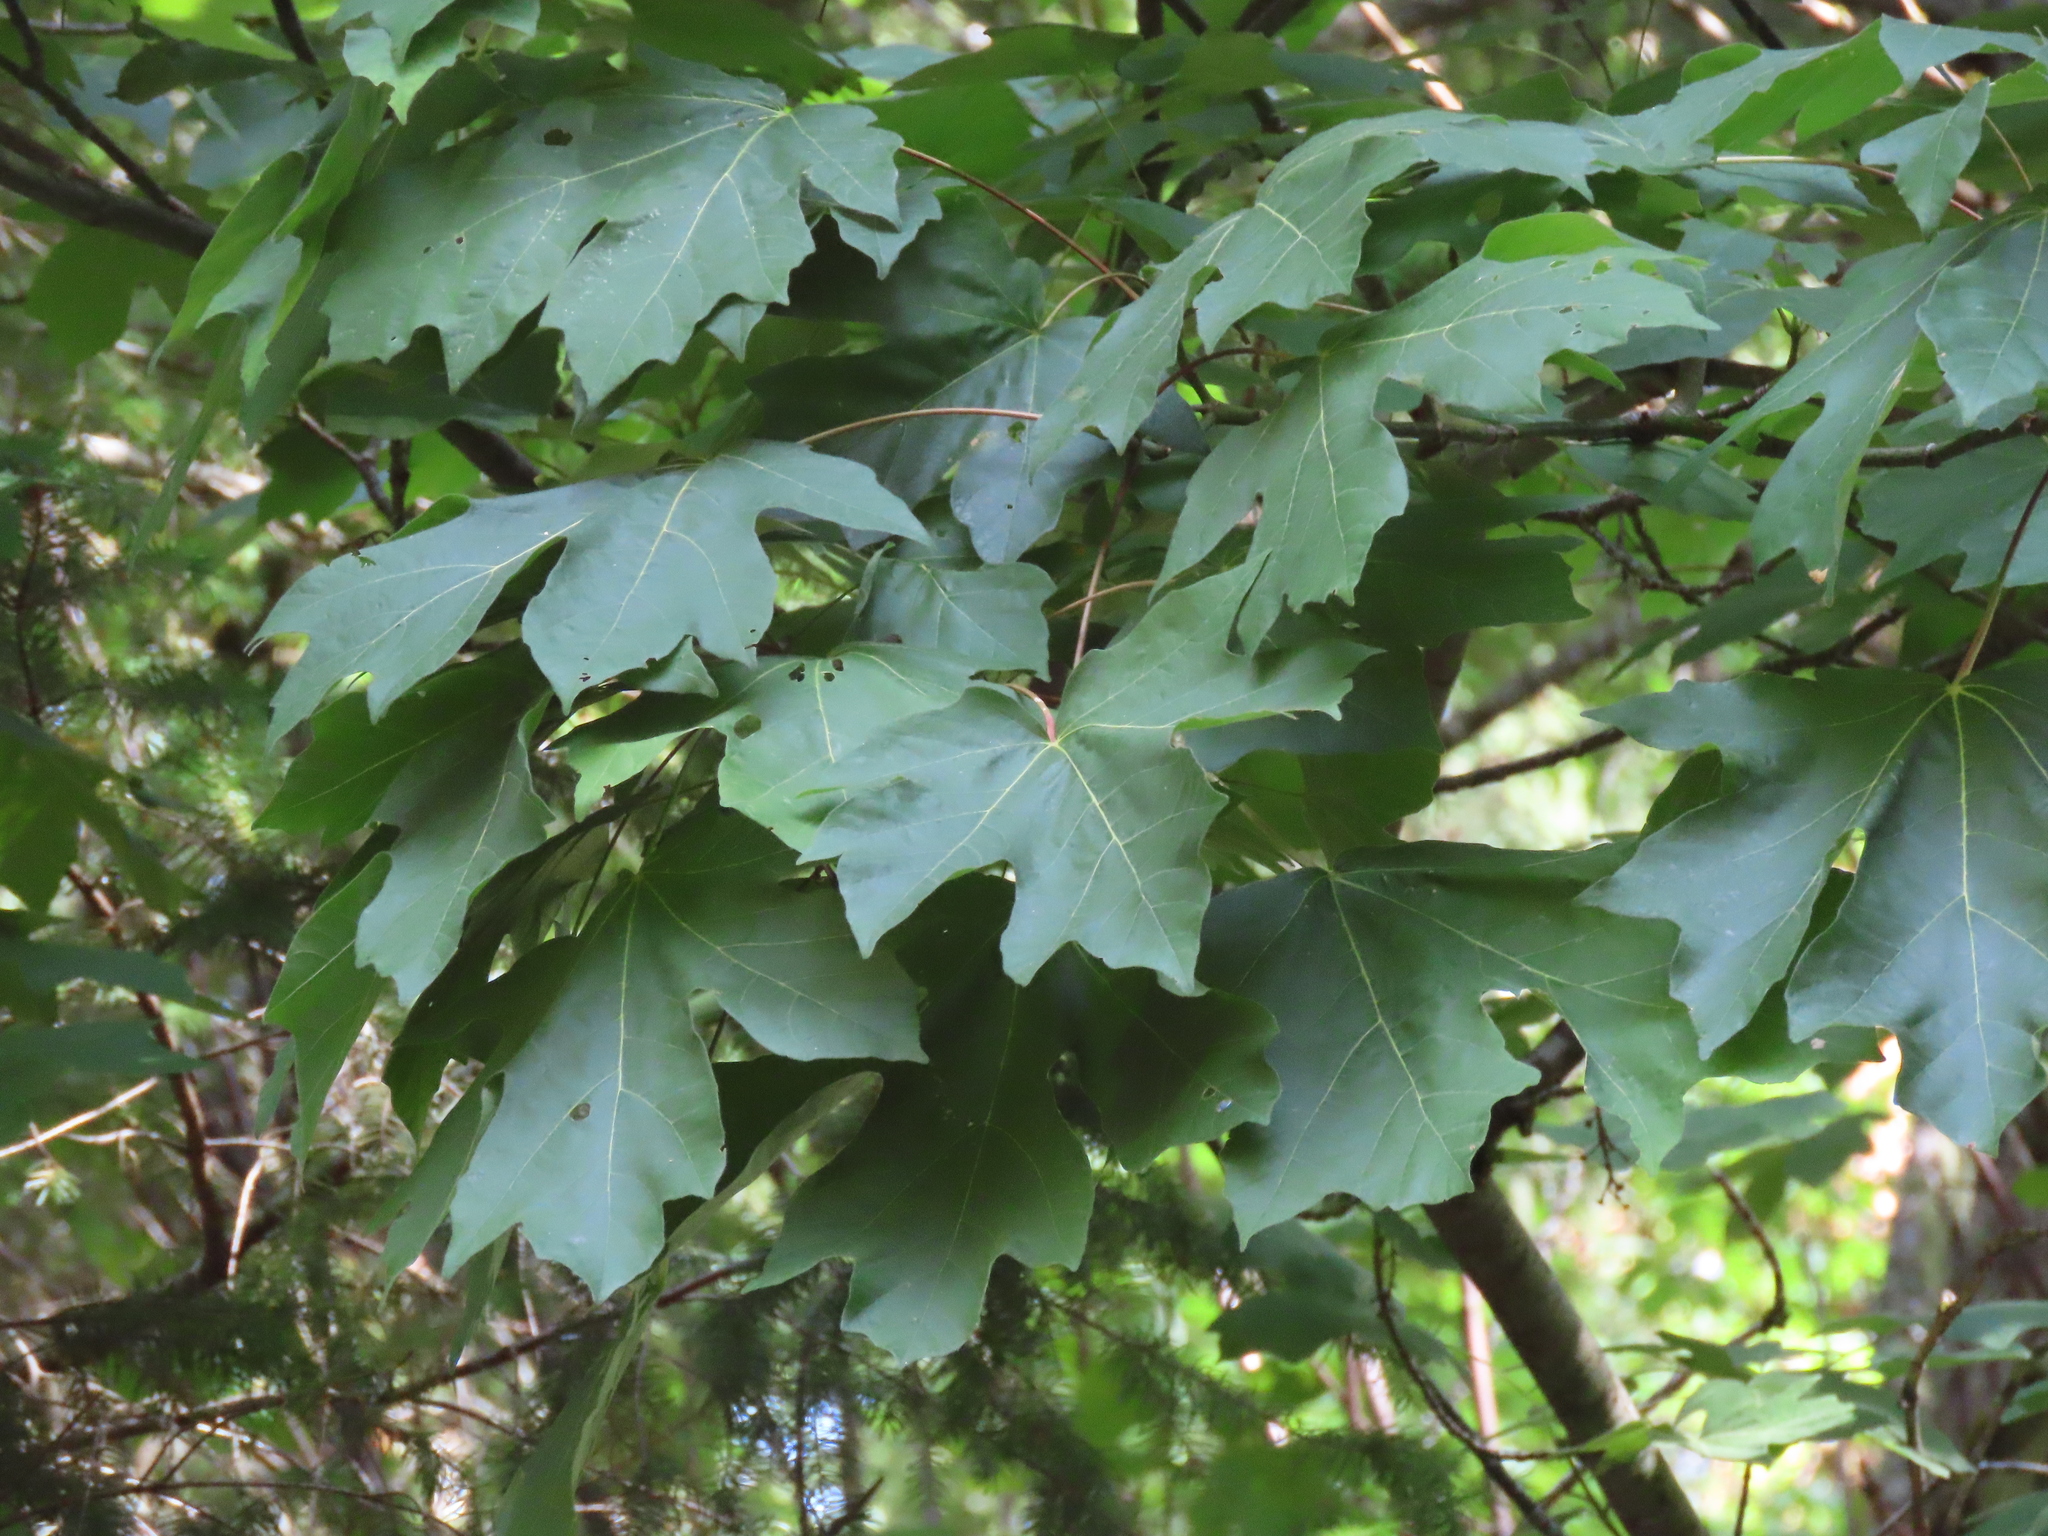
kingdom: Plantae
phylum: Tracheophyta
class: Magnoliopsida
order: Sapindales
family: Sapindaceae
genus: Acer
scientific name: Acer macrophyllum
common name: Oregon maple
